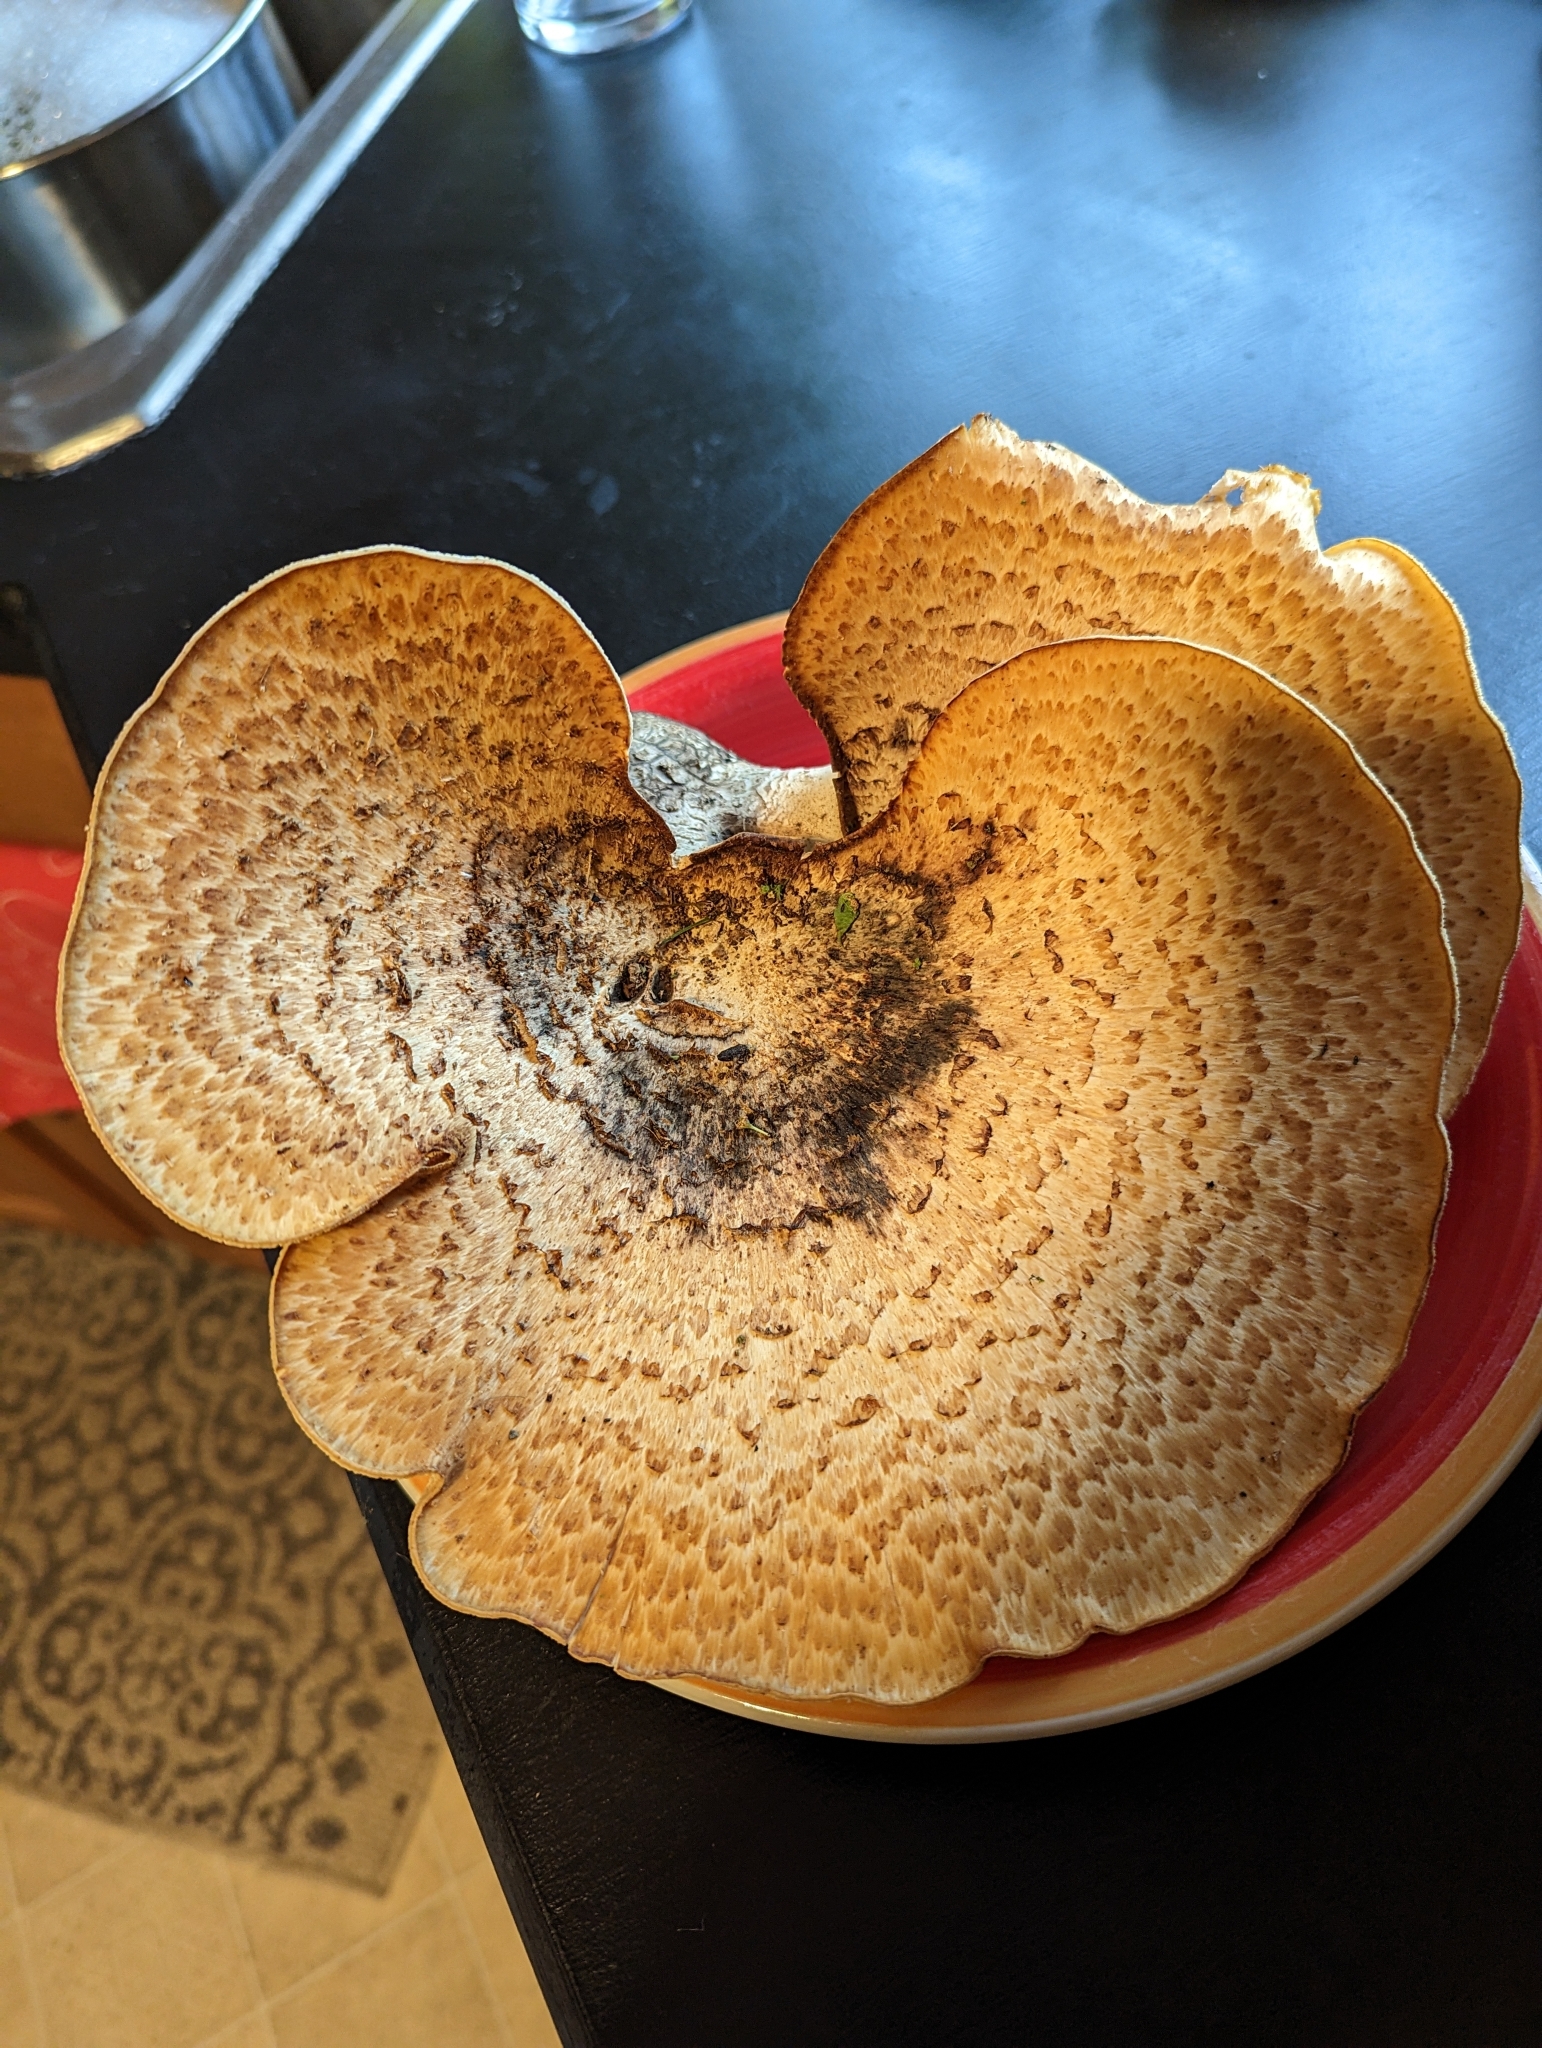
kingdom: Fungi
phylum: Basidiomycota
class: Agaricomycetes
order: Polyporales
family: Polyporaceae
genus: Cerioporus
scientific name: Cerioporus squamosus
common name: Dryad's saddle
